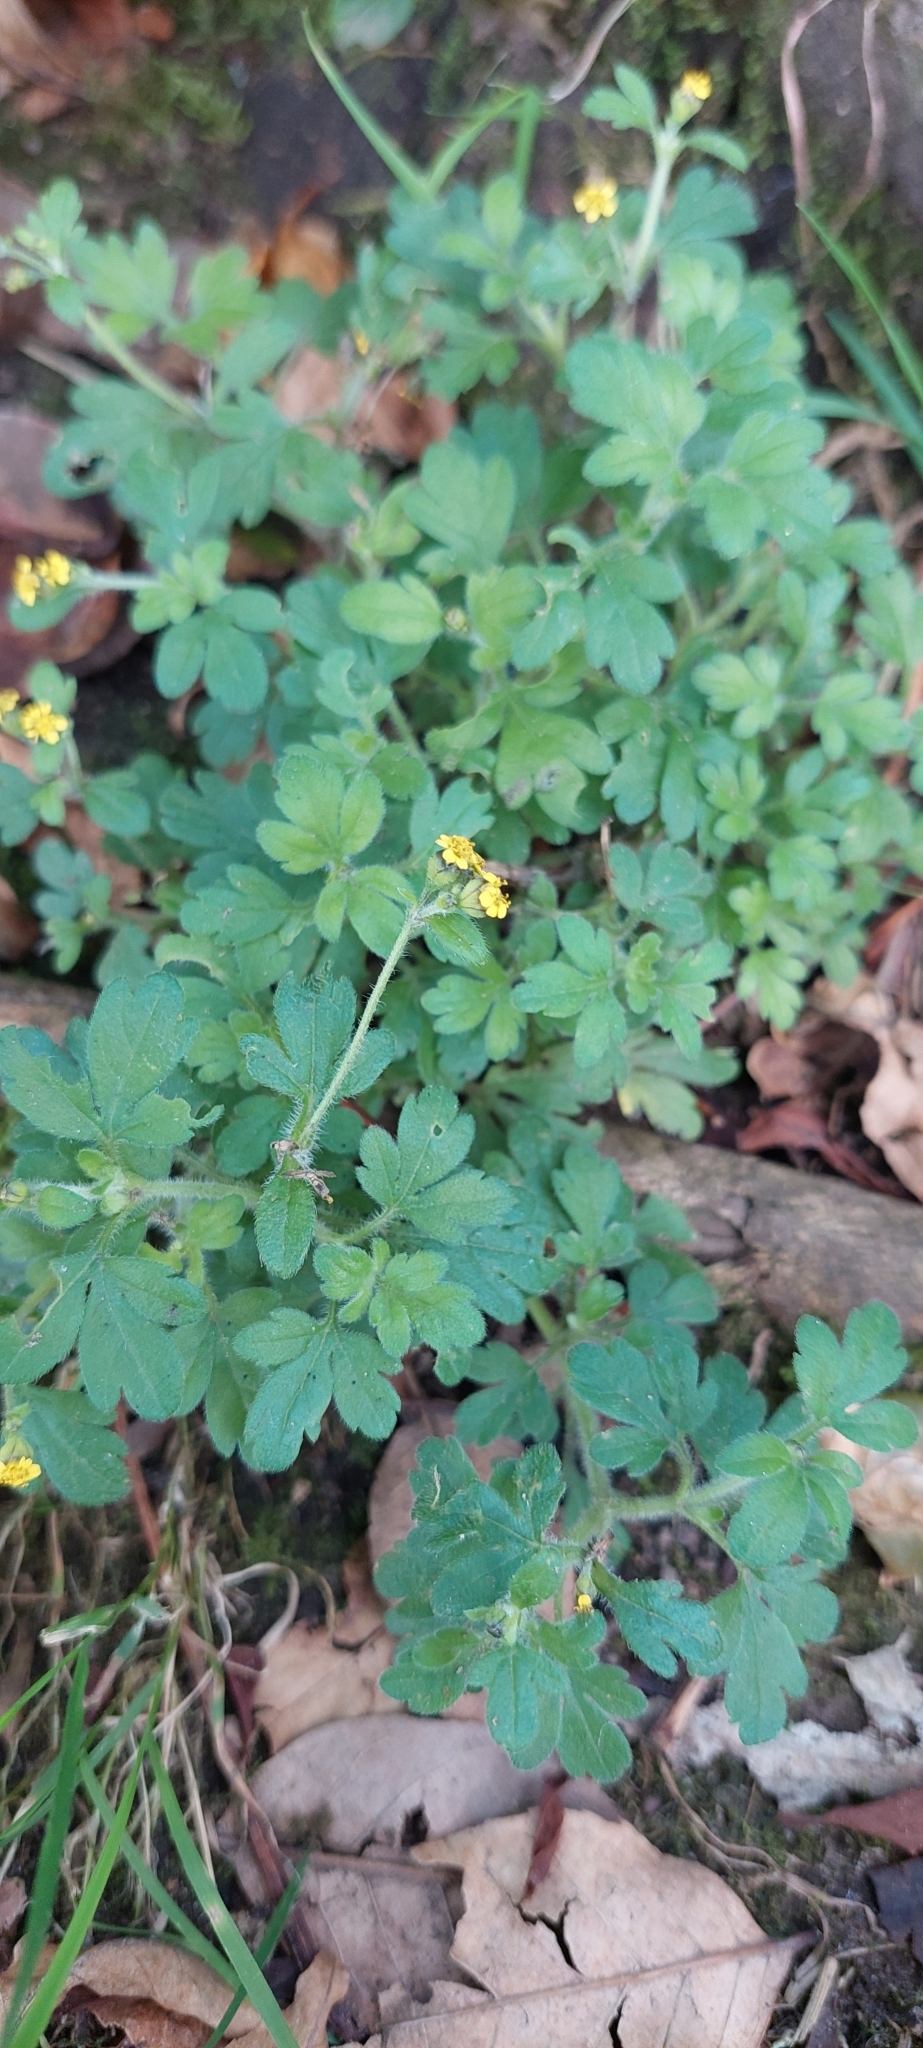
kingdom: Plantae
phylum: Tracheophyta
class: Magnoliopsida
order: Asterales
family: Asteraceae
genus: Villanova
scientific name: Villanova oppositifolia
